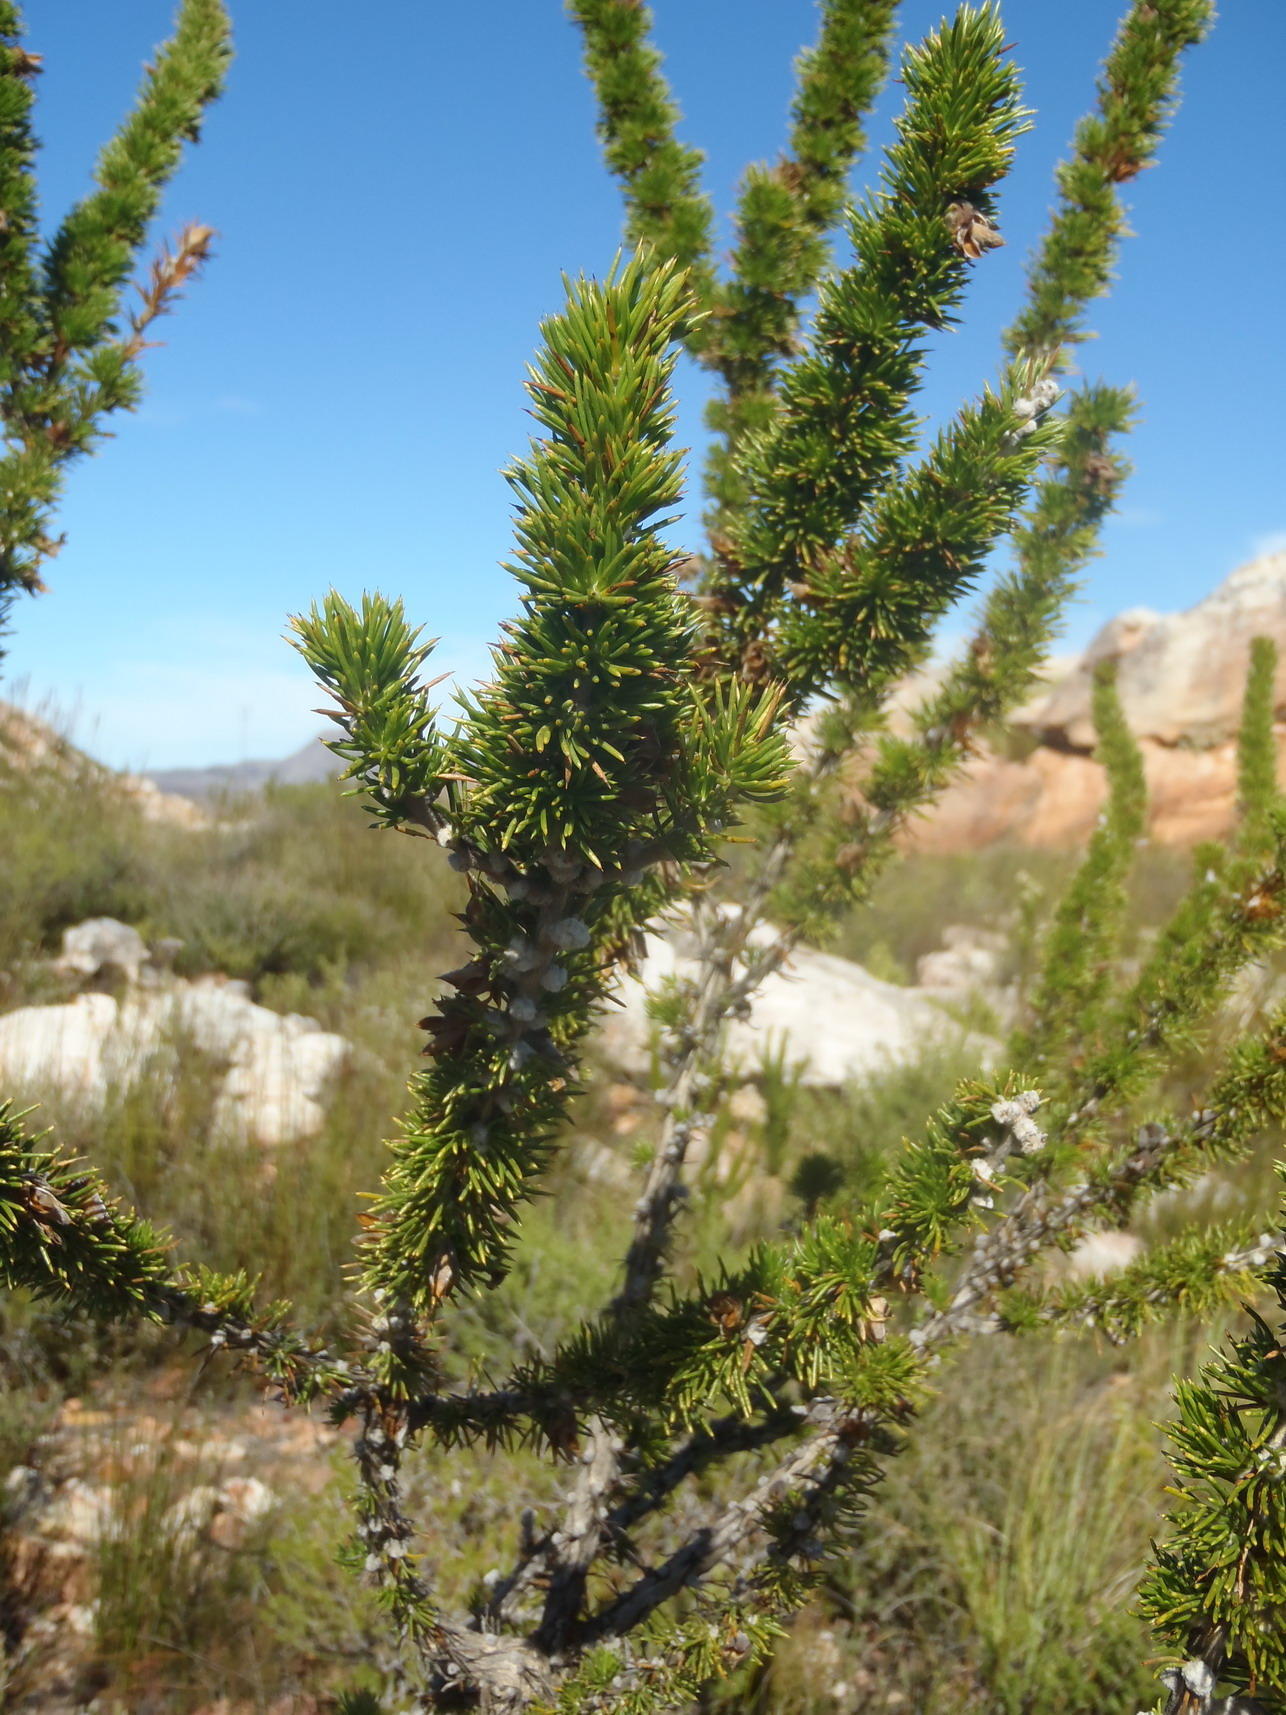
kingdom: Plantae
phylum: Tracheophyta
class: Magnoliopsida
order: Fabales
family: Fabaceae
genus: Aspalathus
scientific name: Aspalathus sceptrumaureum
